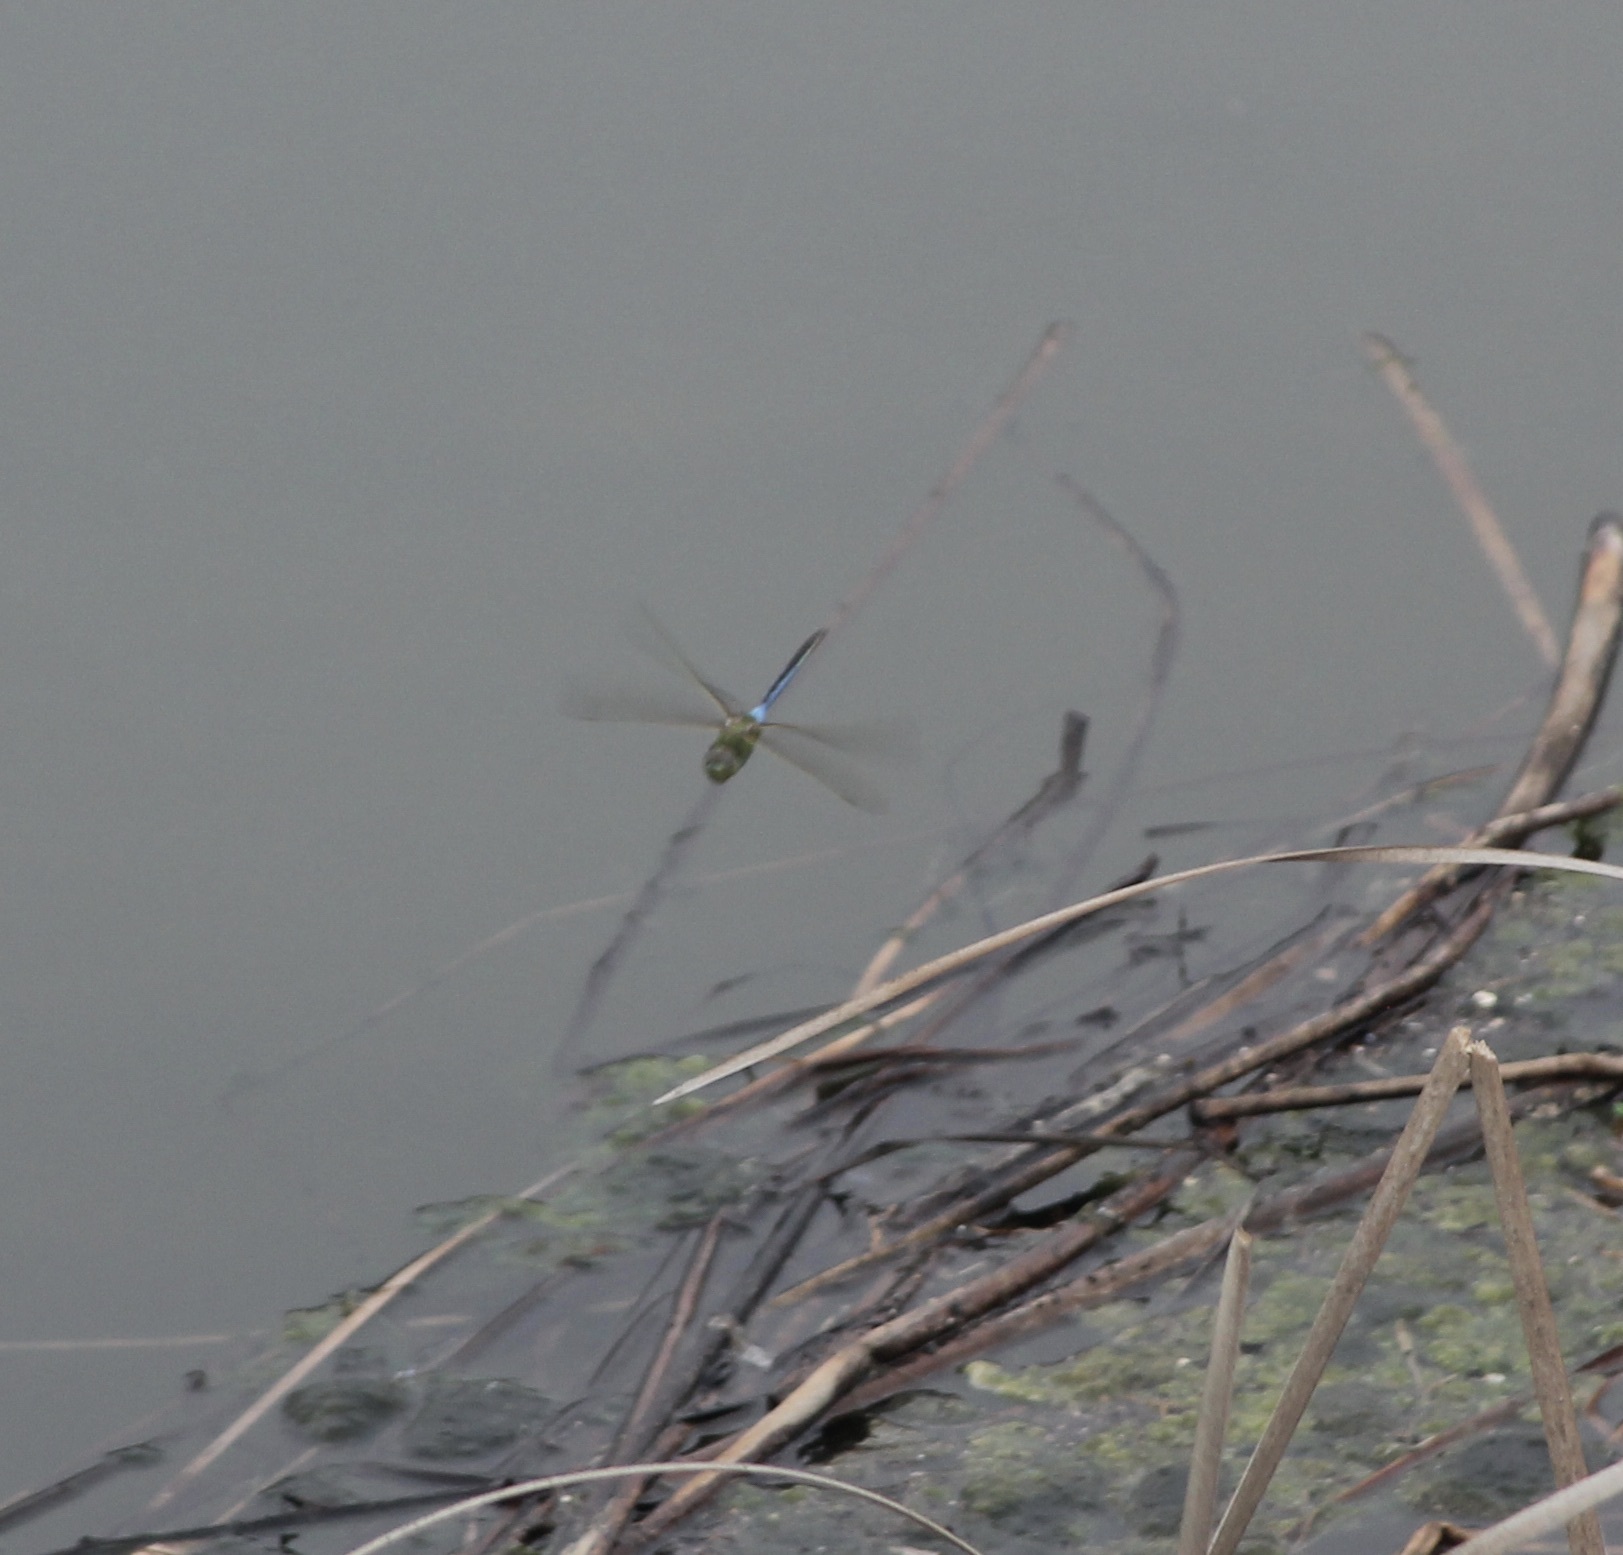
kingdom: Animalia
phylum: Arthropoda
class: Insecta
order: Odonata
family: Aeshnidae
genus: Anax
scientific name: Anax junius
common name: Common green darner
